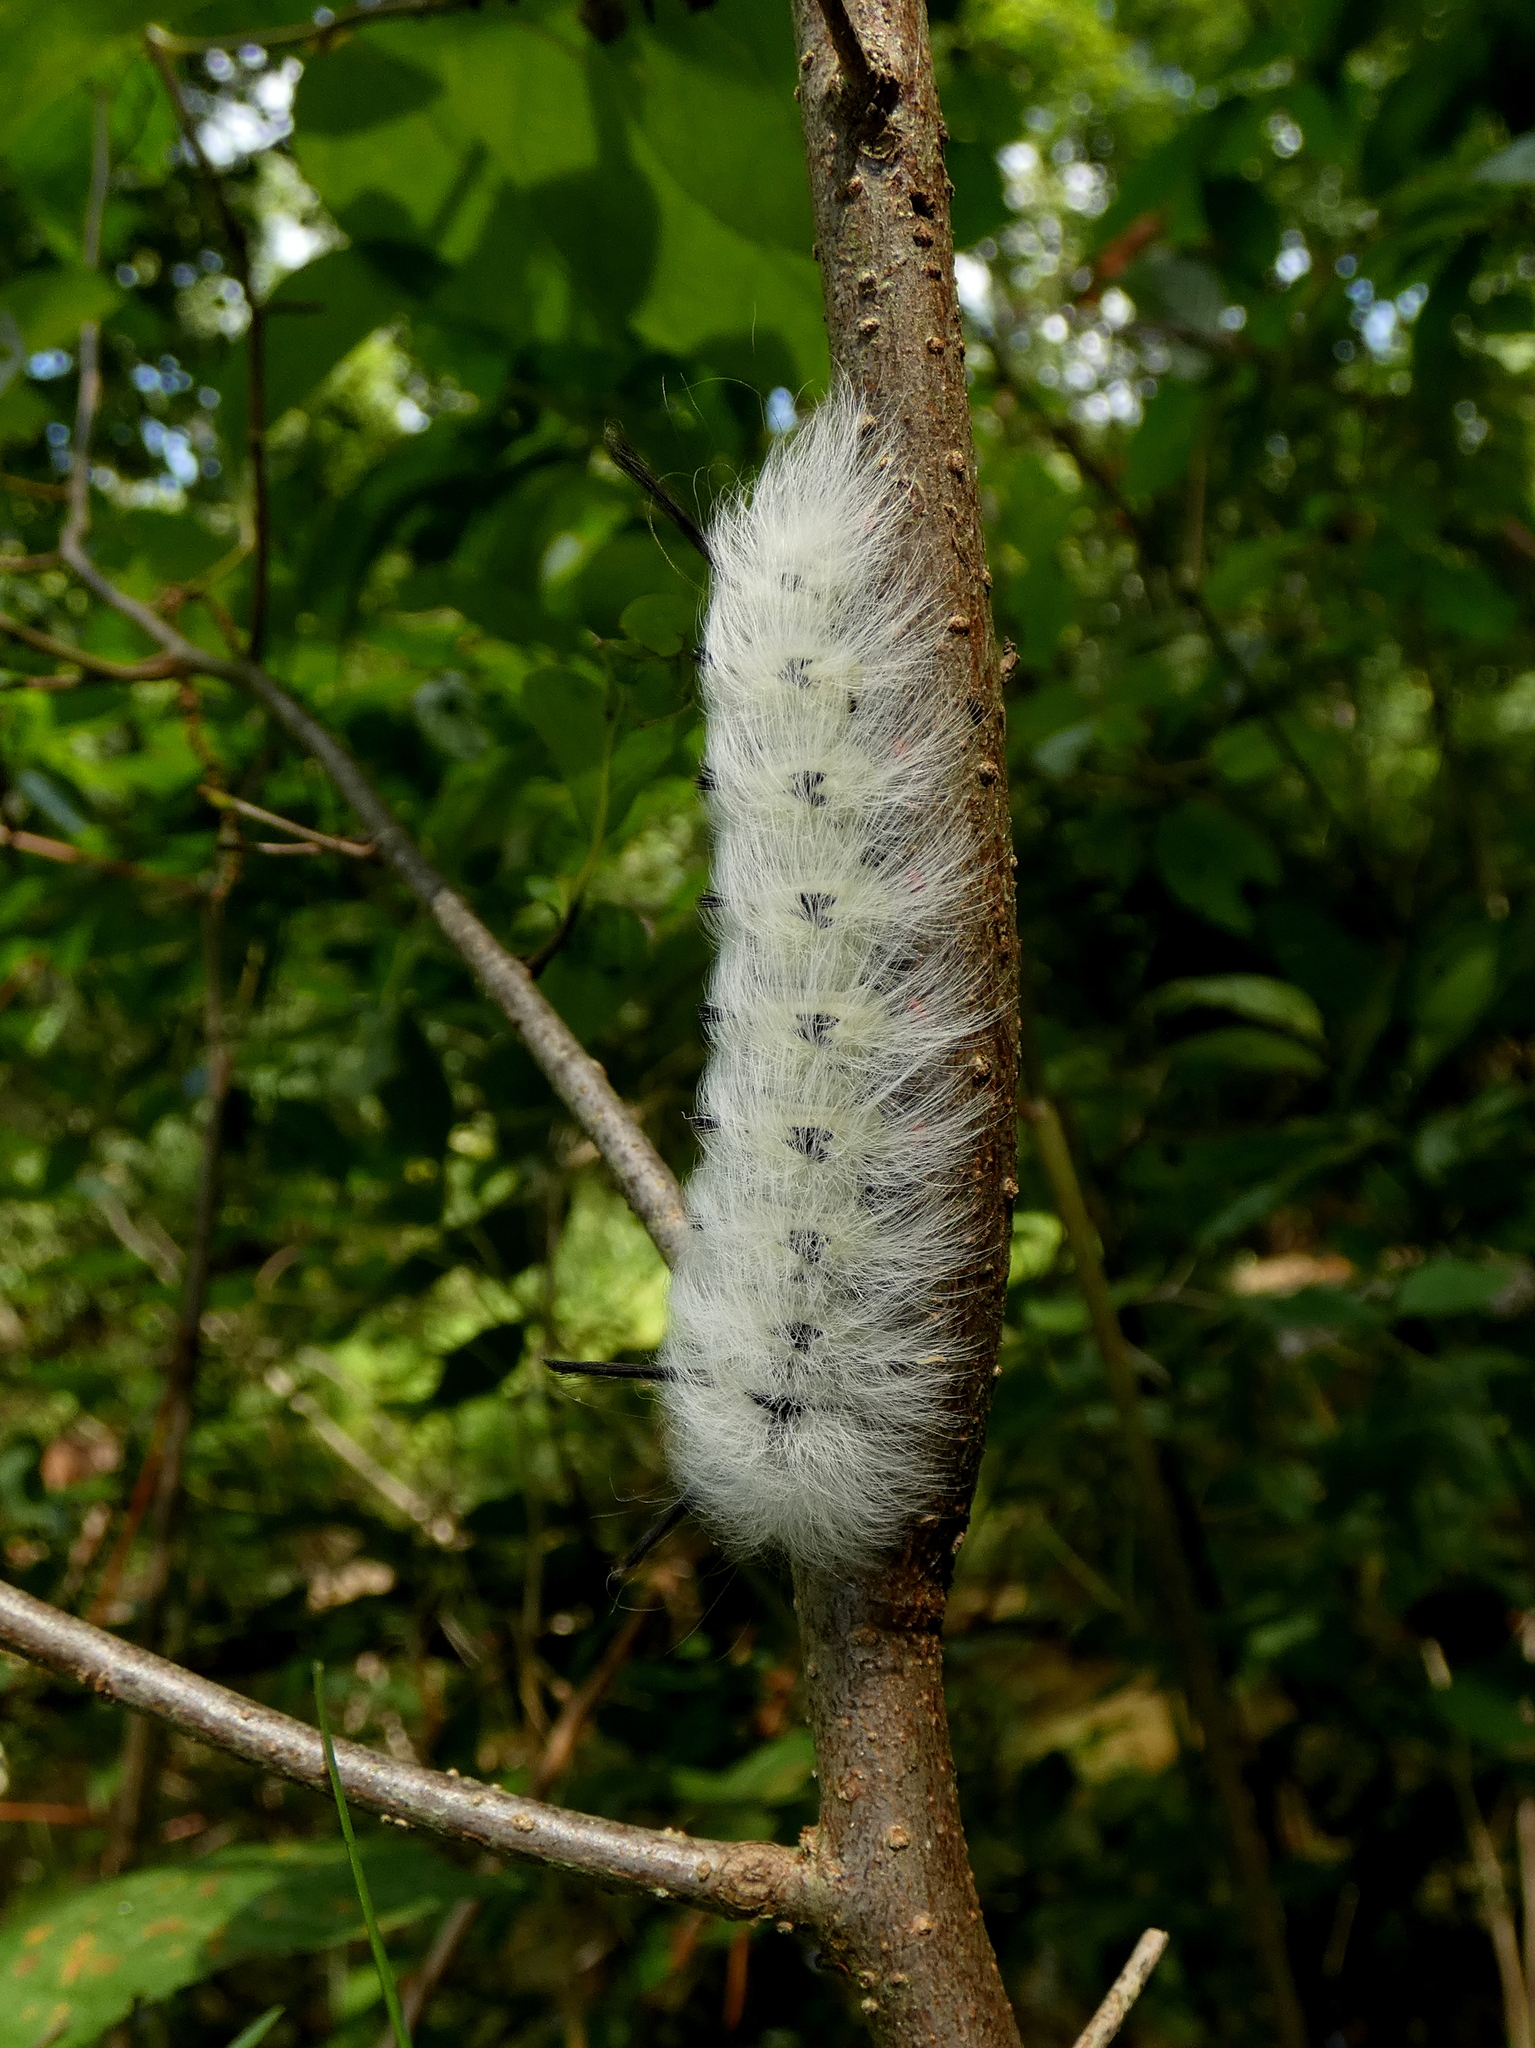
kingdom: Animalia
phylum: Arthropoda
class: Insecta
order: Lepidoptera
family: Apatelodidae
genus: Hygrochroa
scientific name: Hygrochroa Apatelodes torrefacta
